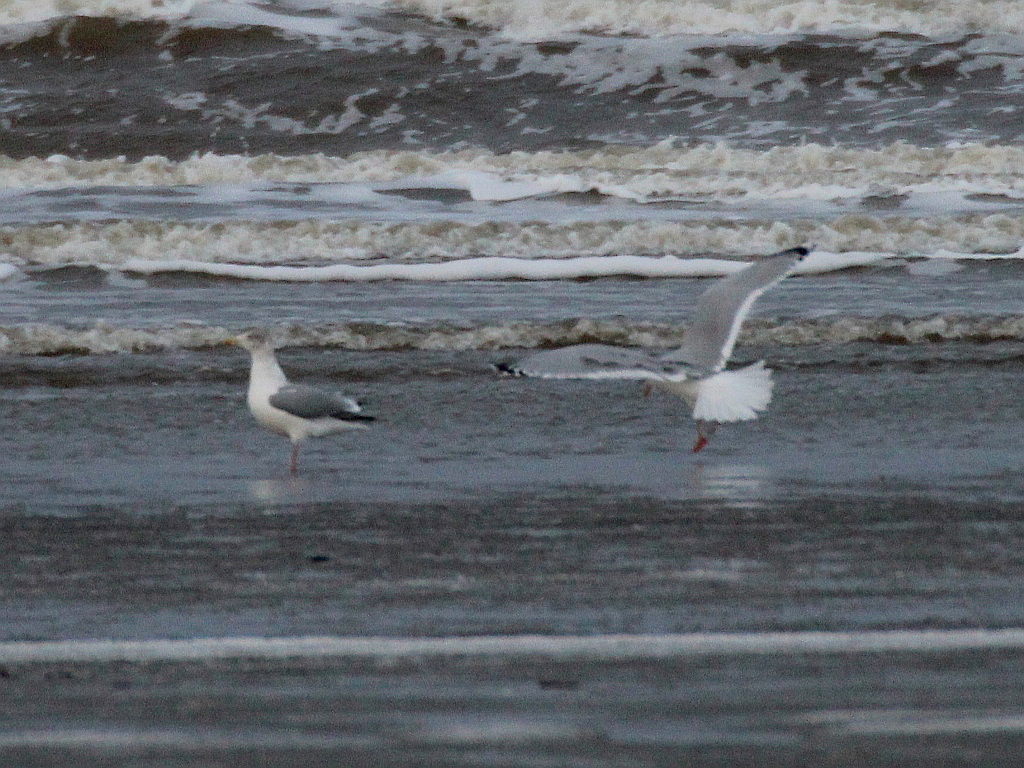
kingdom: Animalia
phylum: Chordata
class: Aves
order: Charadriiformes
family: Laridae
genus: Larus
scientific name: Larus argentatus
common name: Herring gull
